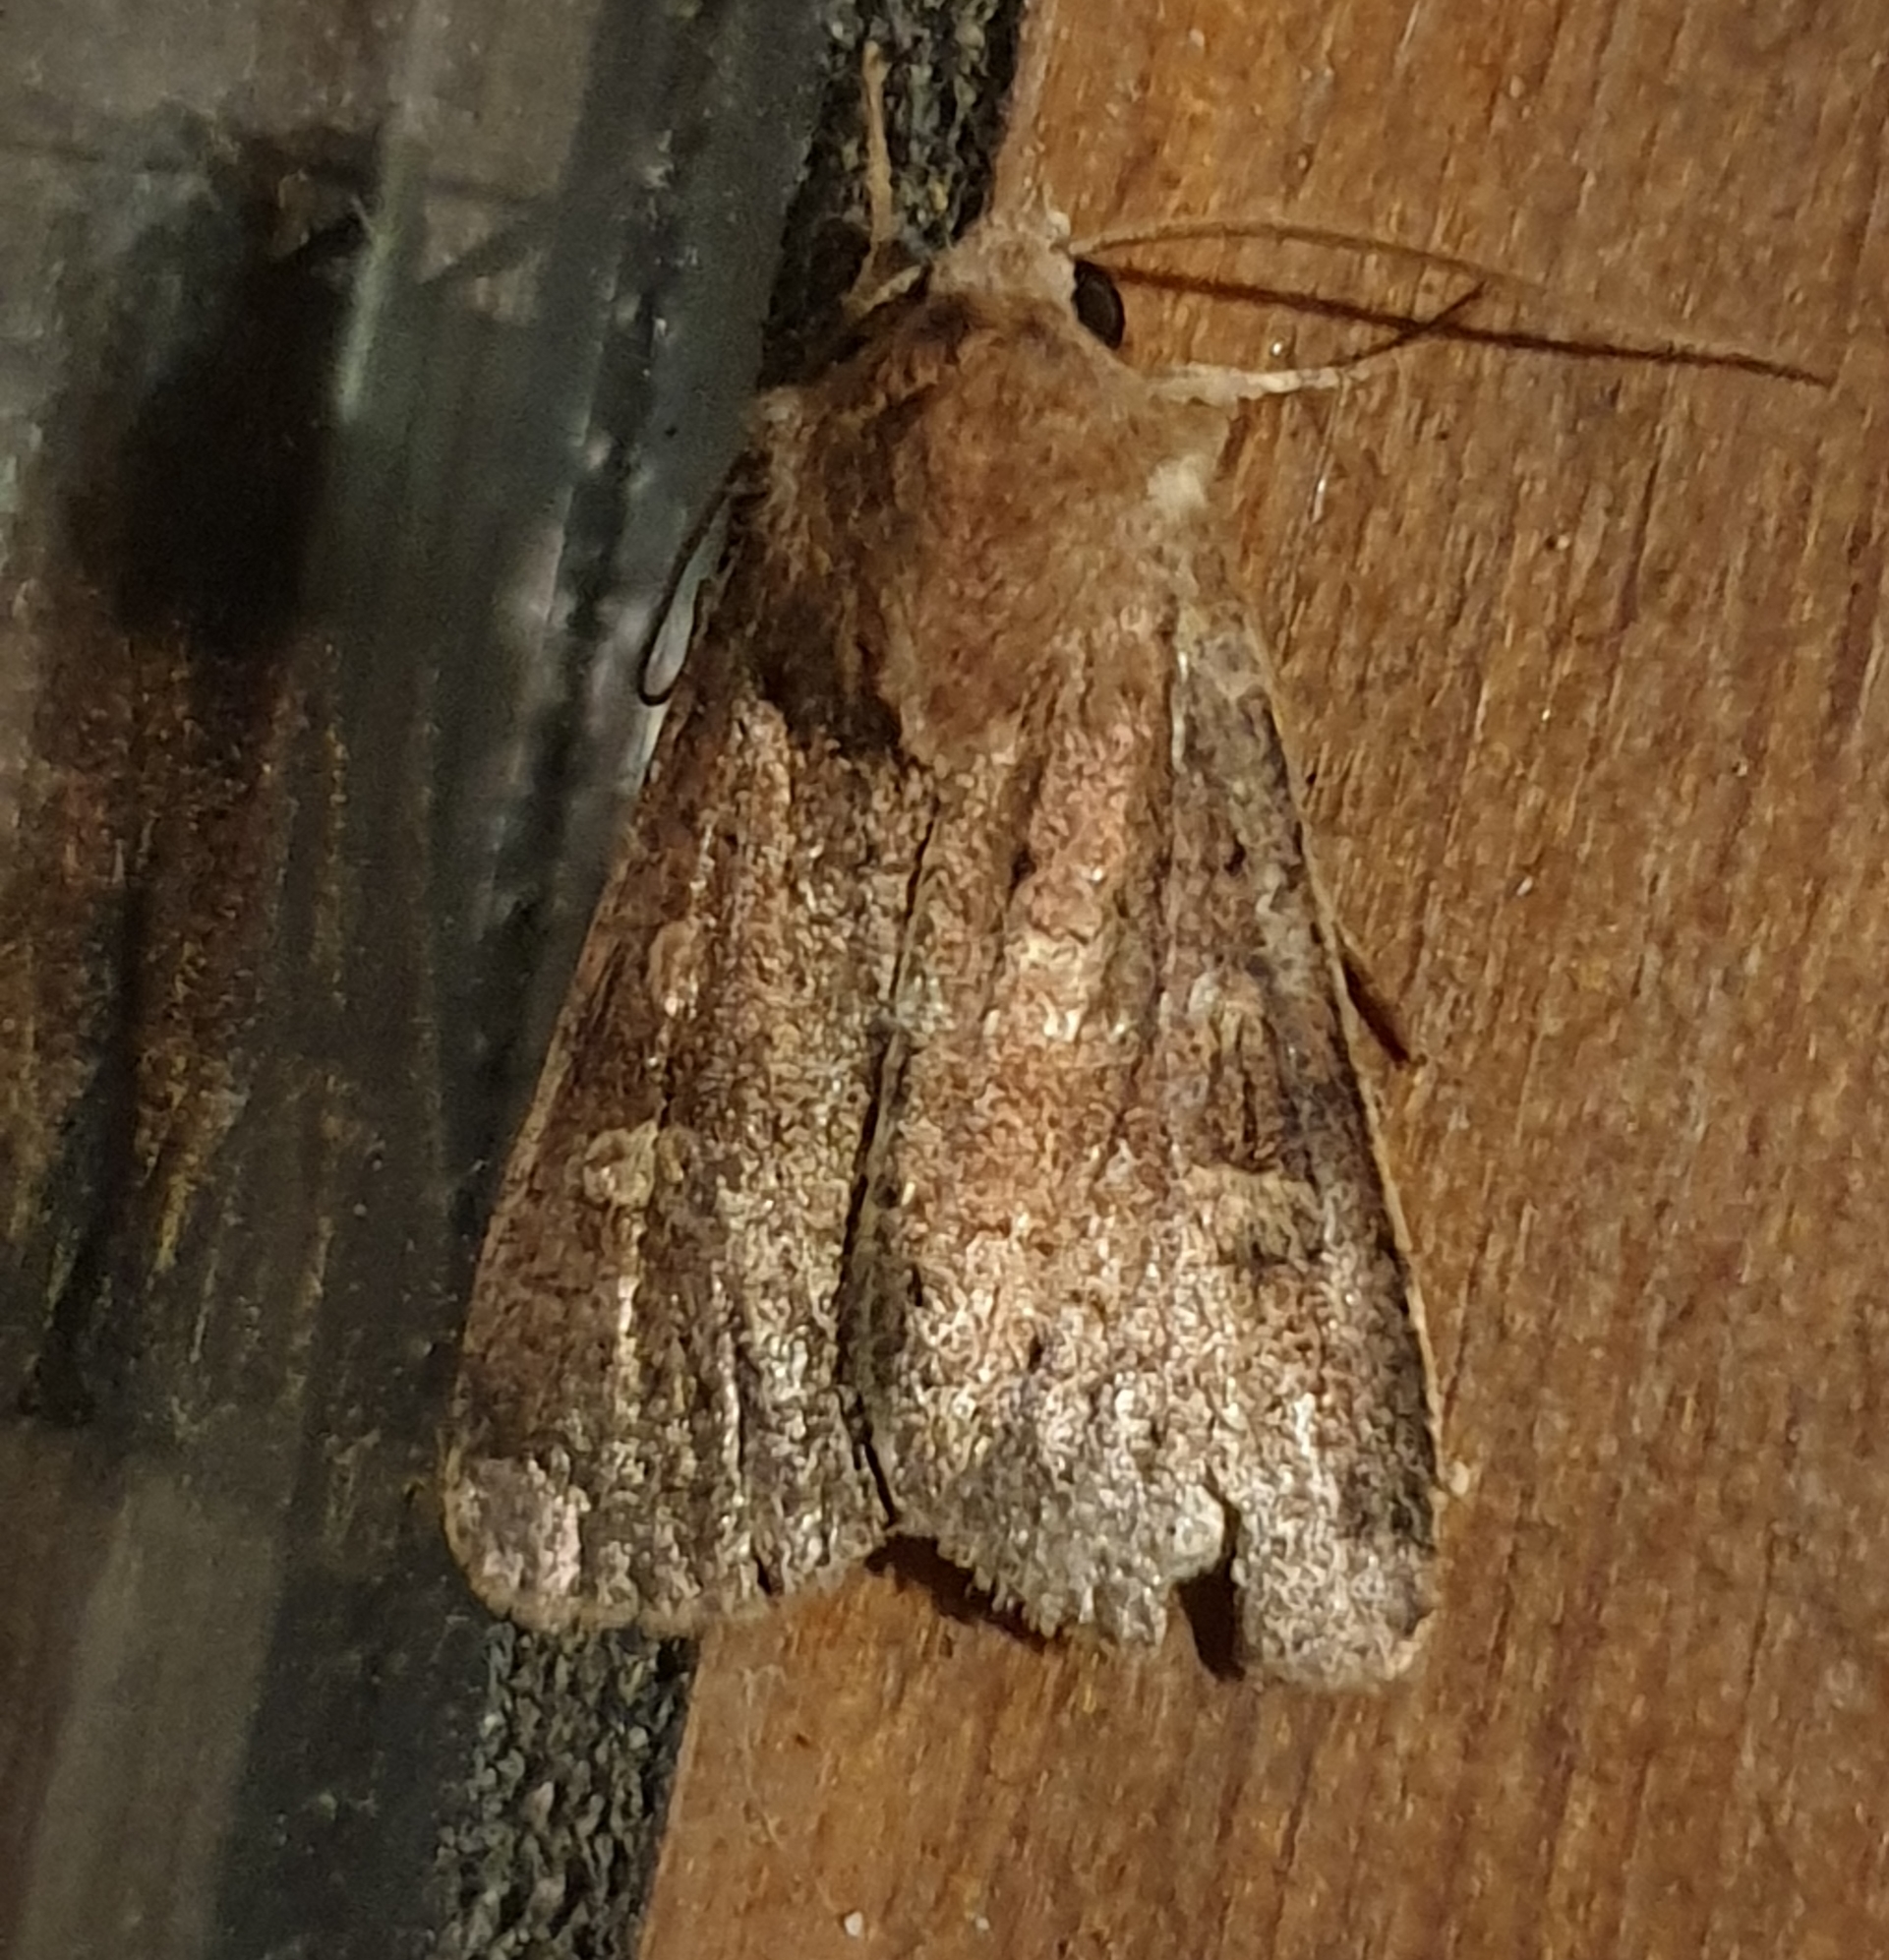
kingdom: Animalia
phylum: Arthropoda
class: Insecta
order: Lepidoptera
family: Noctuidae
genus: Xestia
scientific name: Xestia xanthographa
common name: Square-spot rustic
